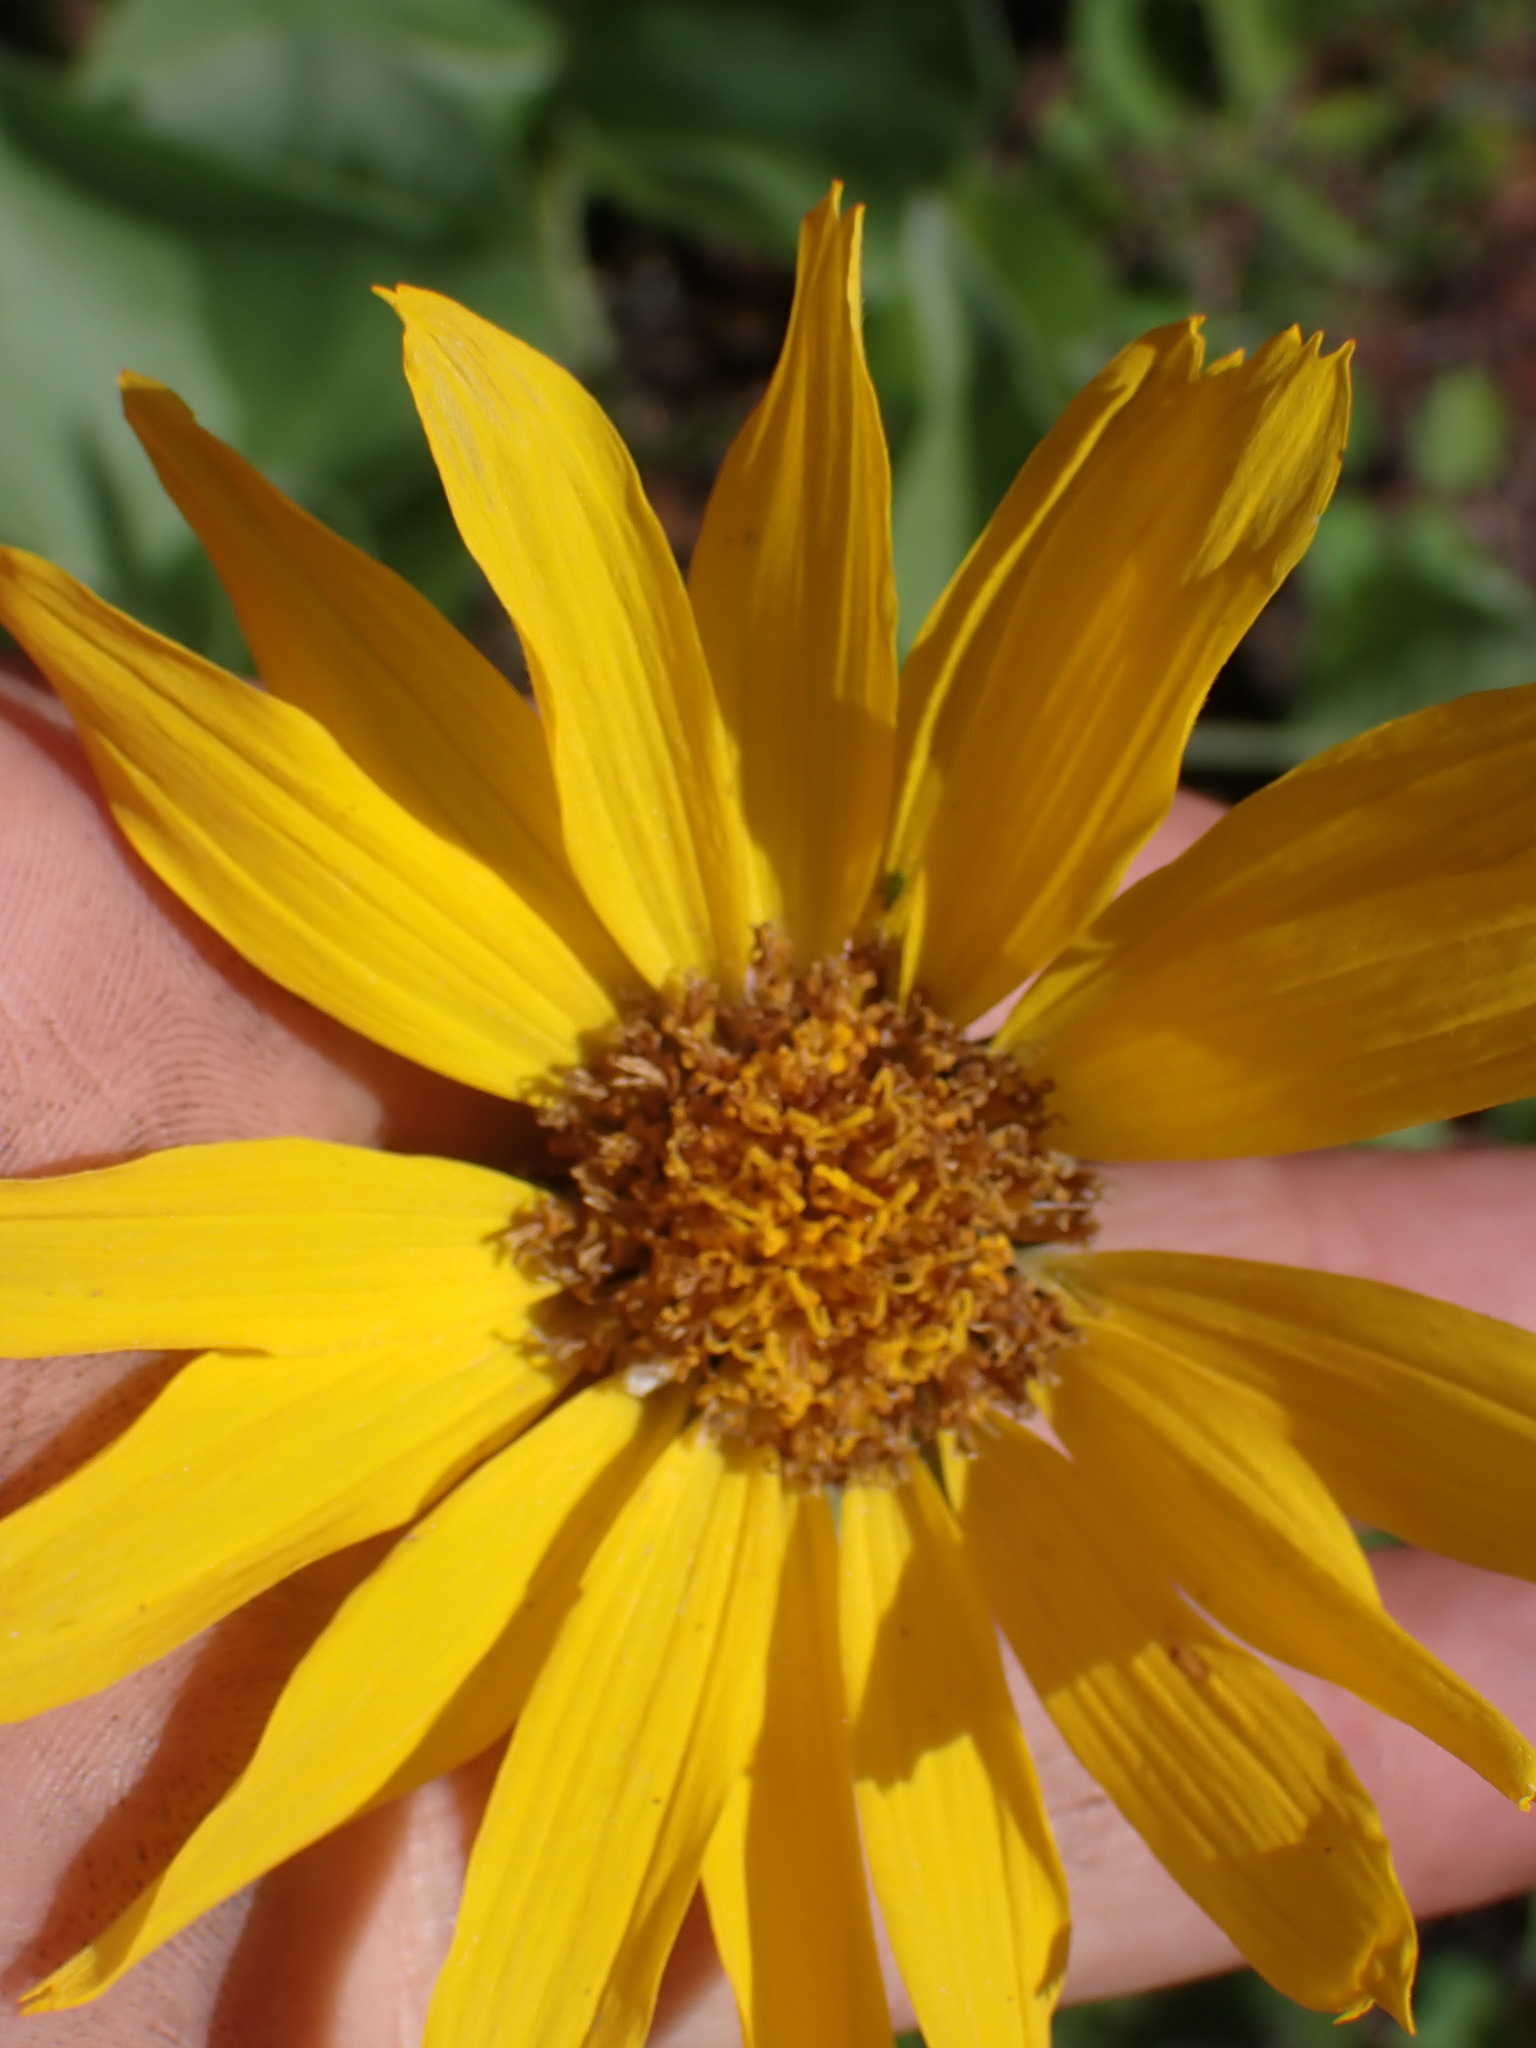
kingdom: Plantae
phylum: Tracheophyta
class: Magnoliopsida
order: Asterales
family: Asteraceae
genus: Wyethia
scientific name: Wyethia sagittata
